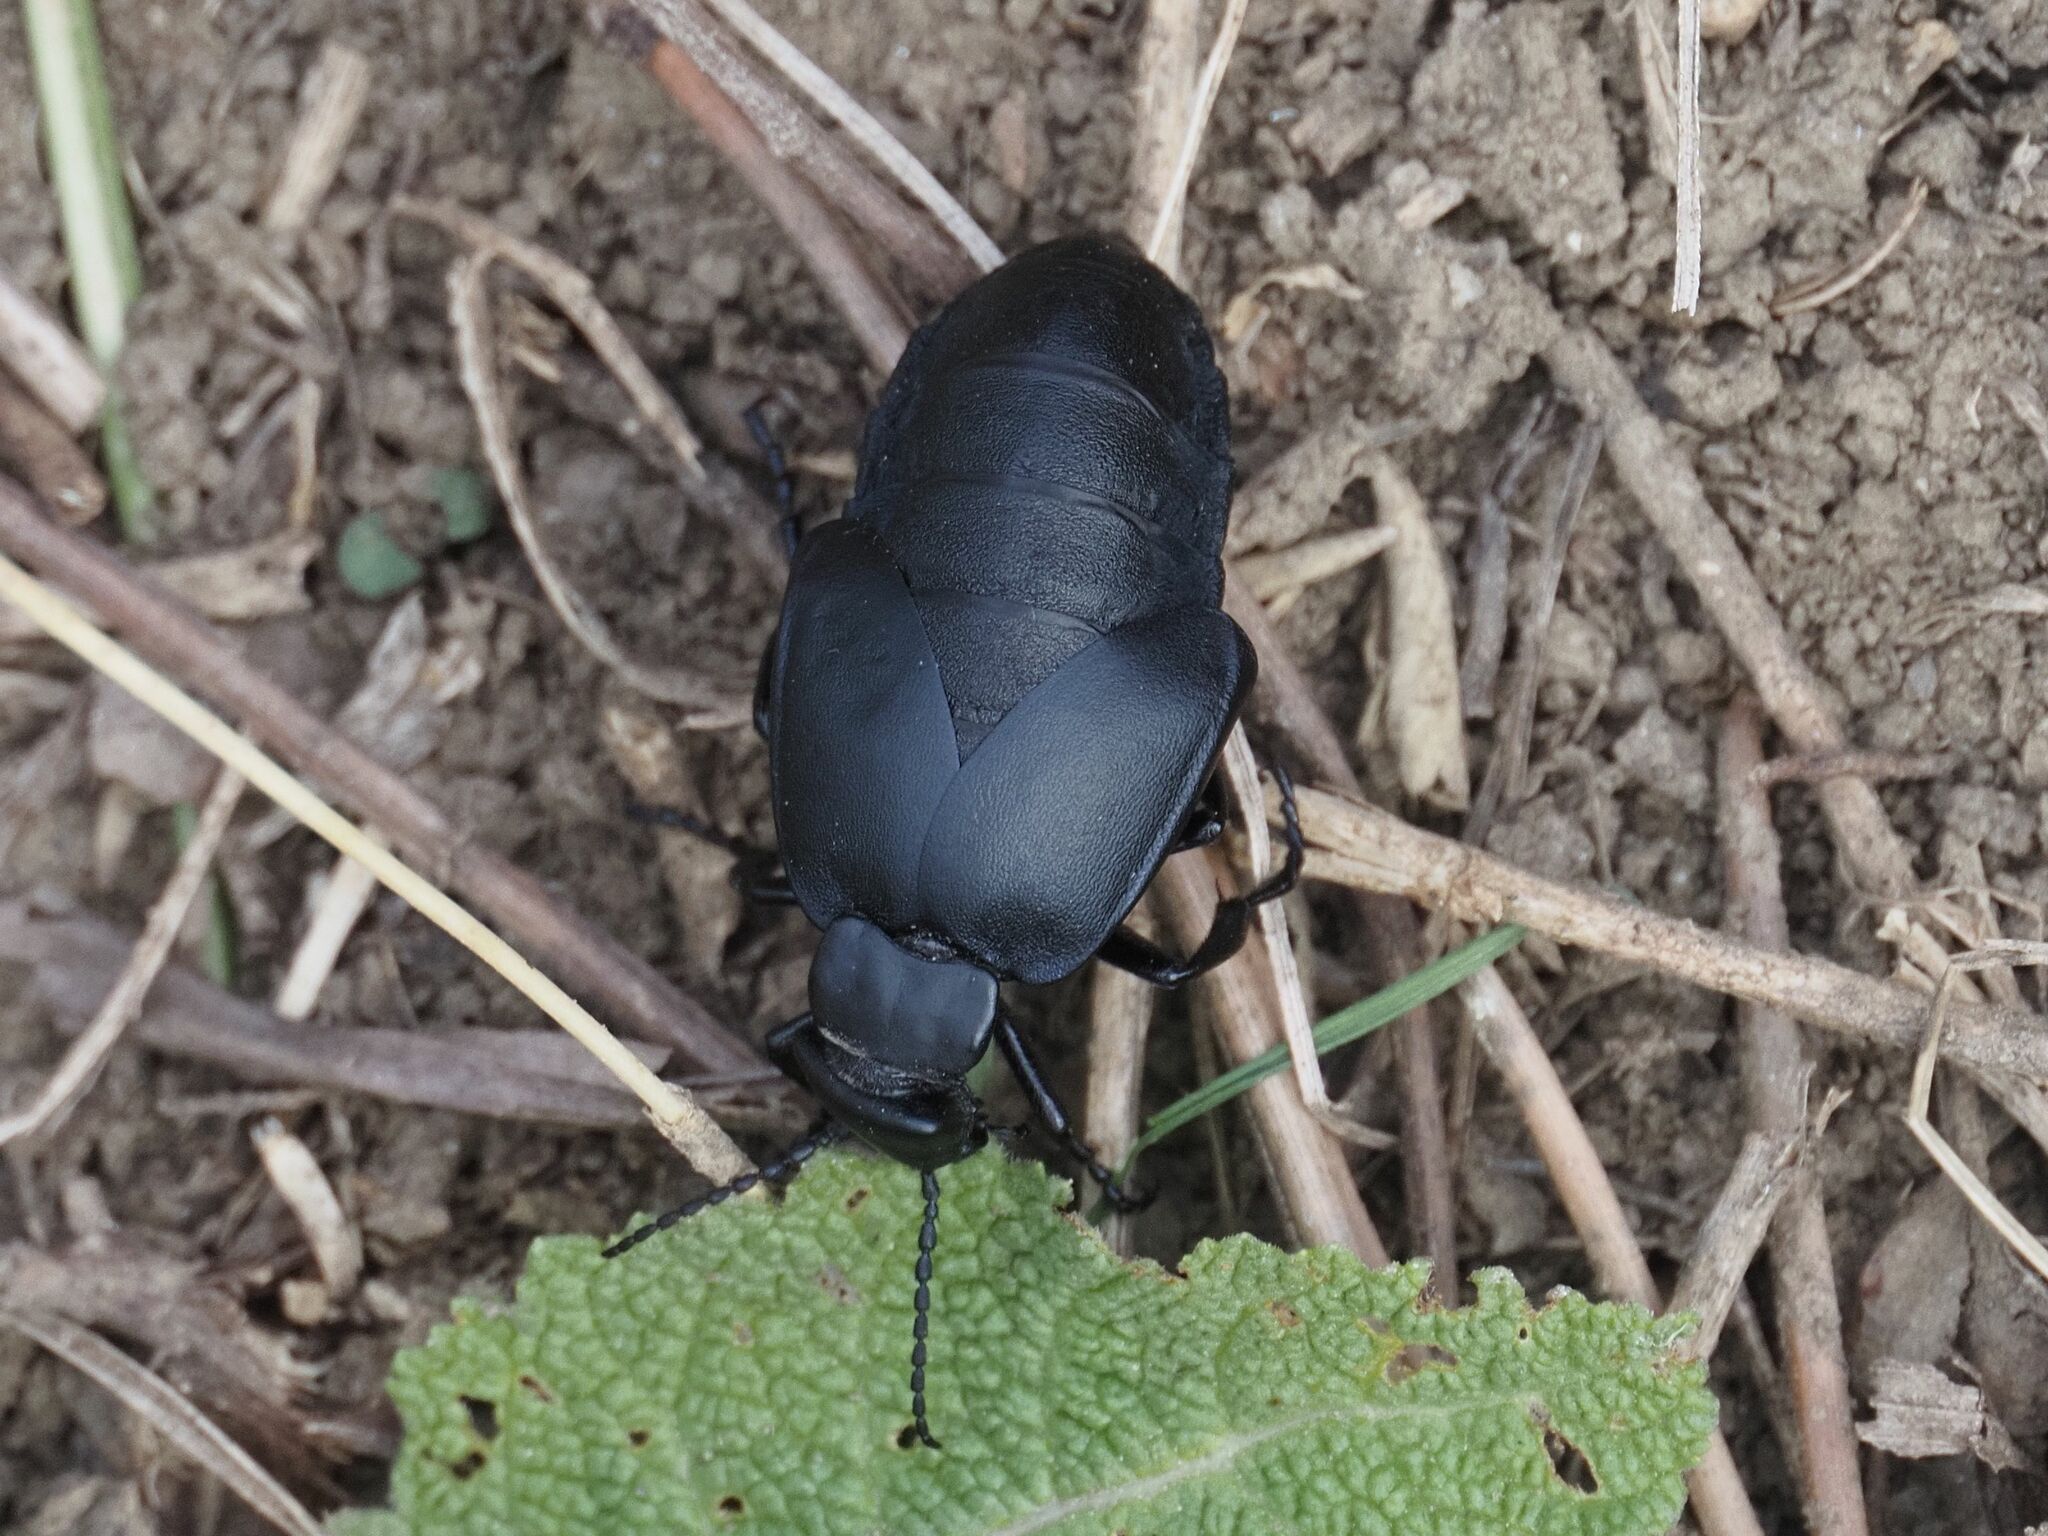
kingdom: Animalia
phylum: Arthropoda
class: Insecta
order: Coleoptera
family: Meloidae
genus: Meloe
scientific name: Meloe uralensis
